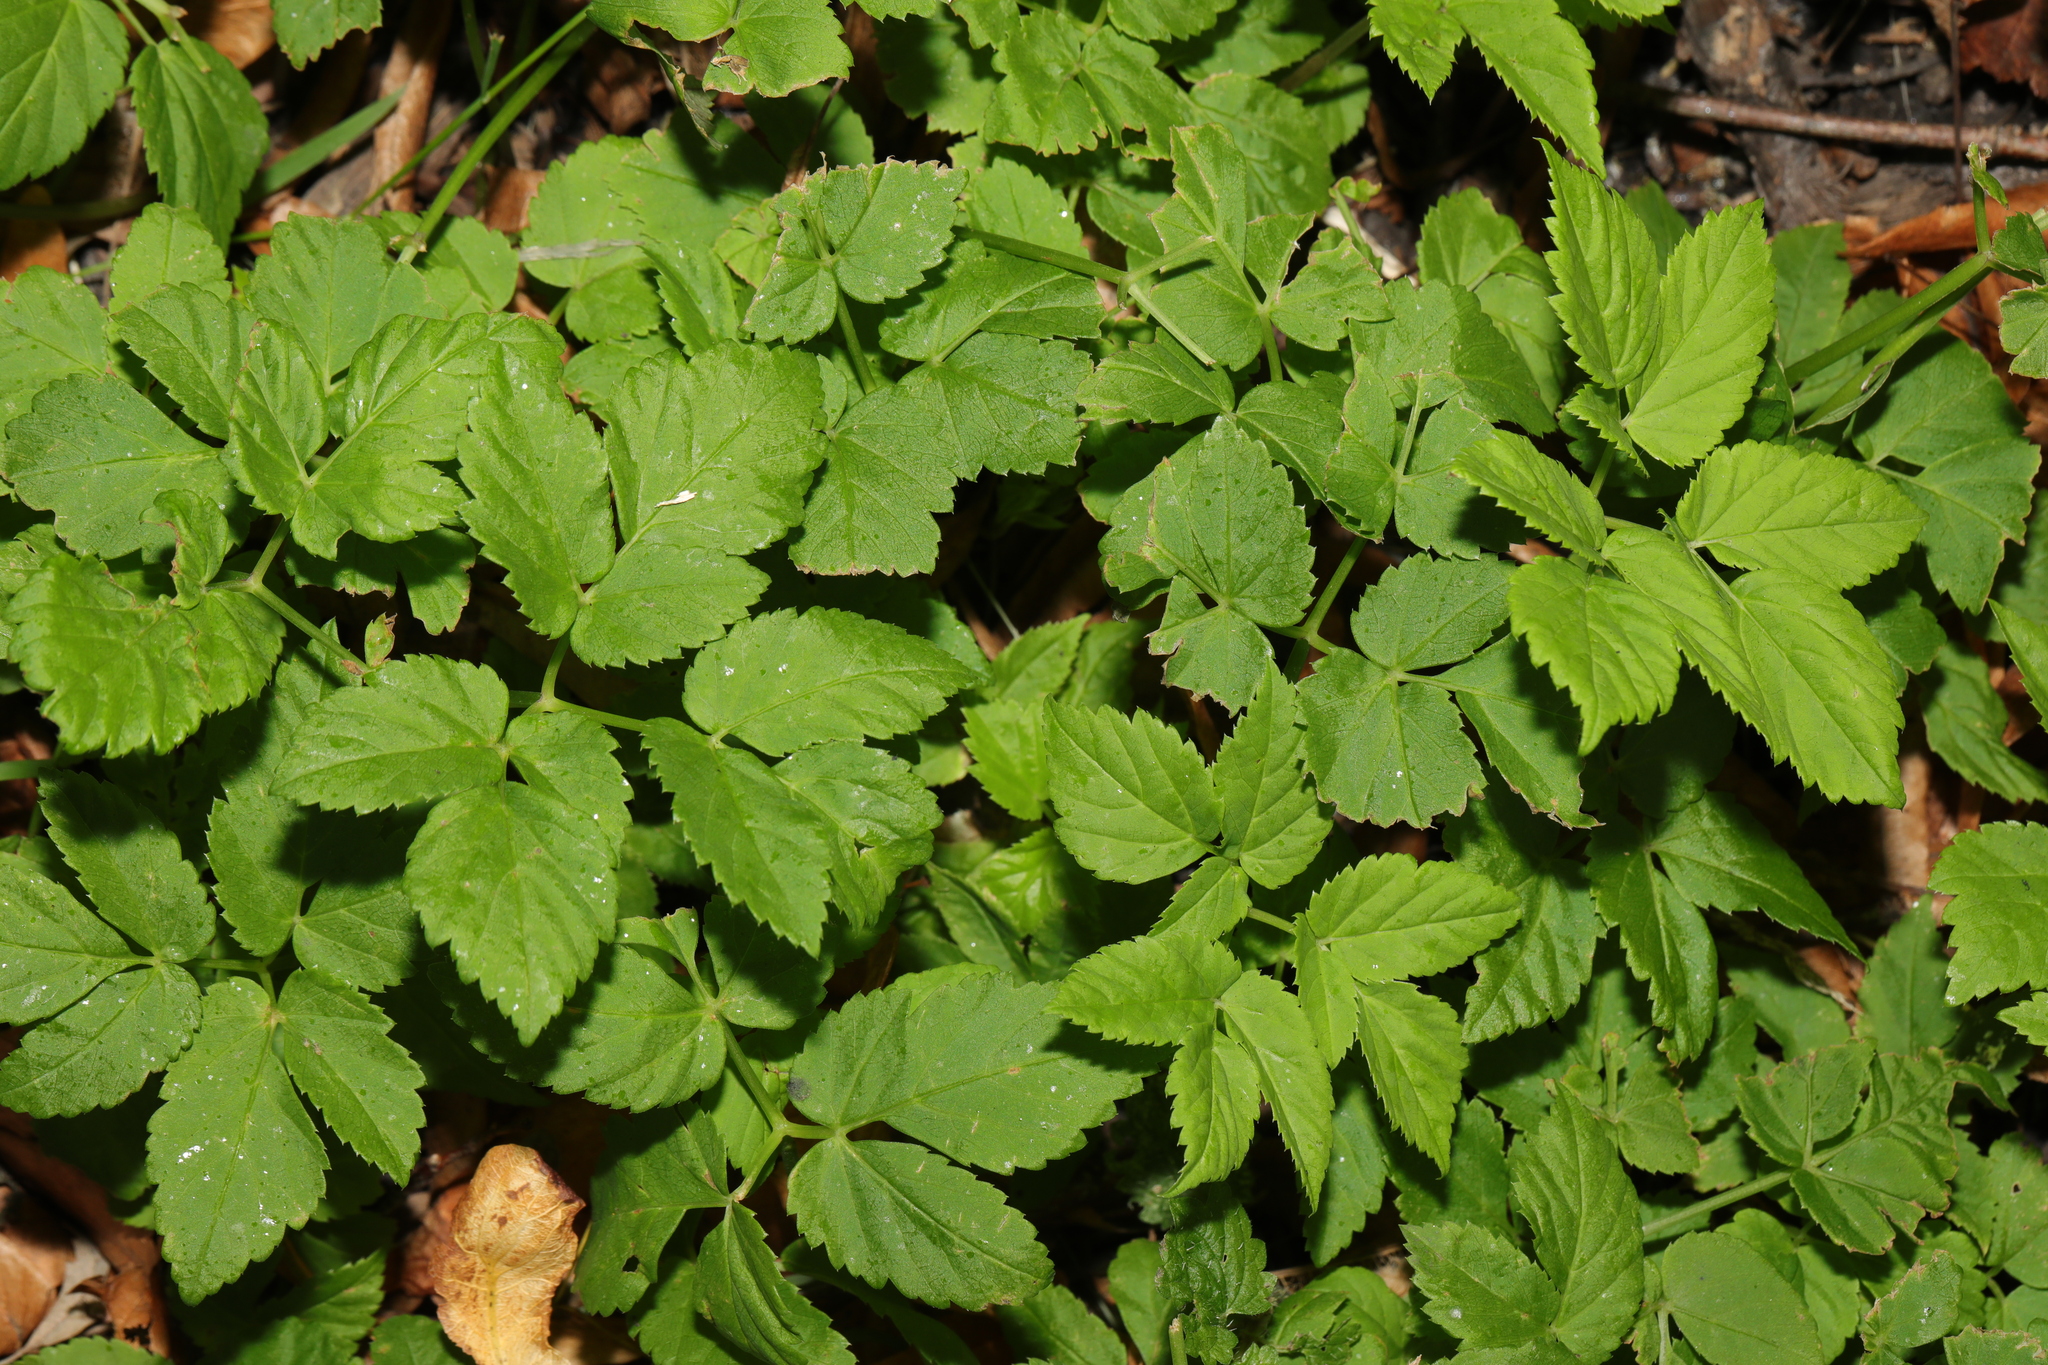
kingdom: Plantae
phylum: Tracheophyta
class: Magnoliopsida
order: Apiales
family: Apiaceae
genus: Aegopodium
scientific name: Aegopodium podagraria
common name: Ground-elder
